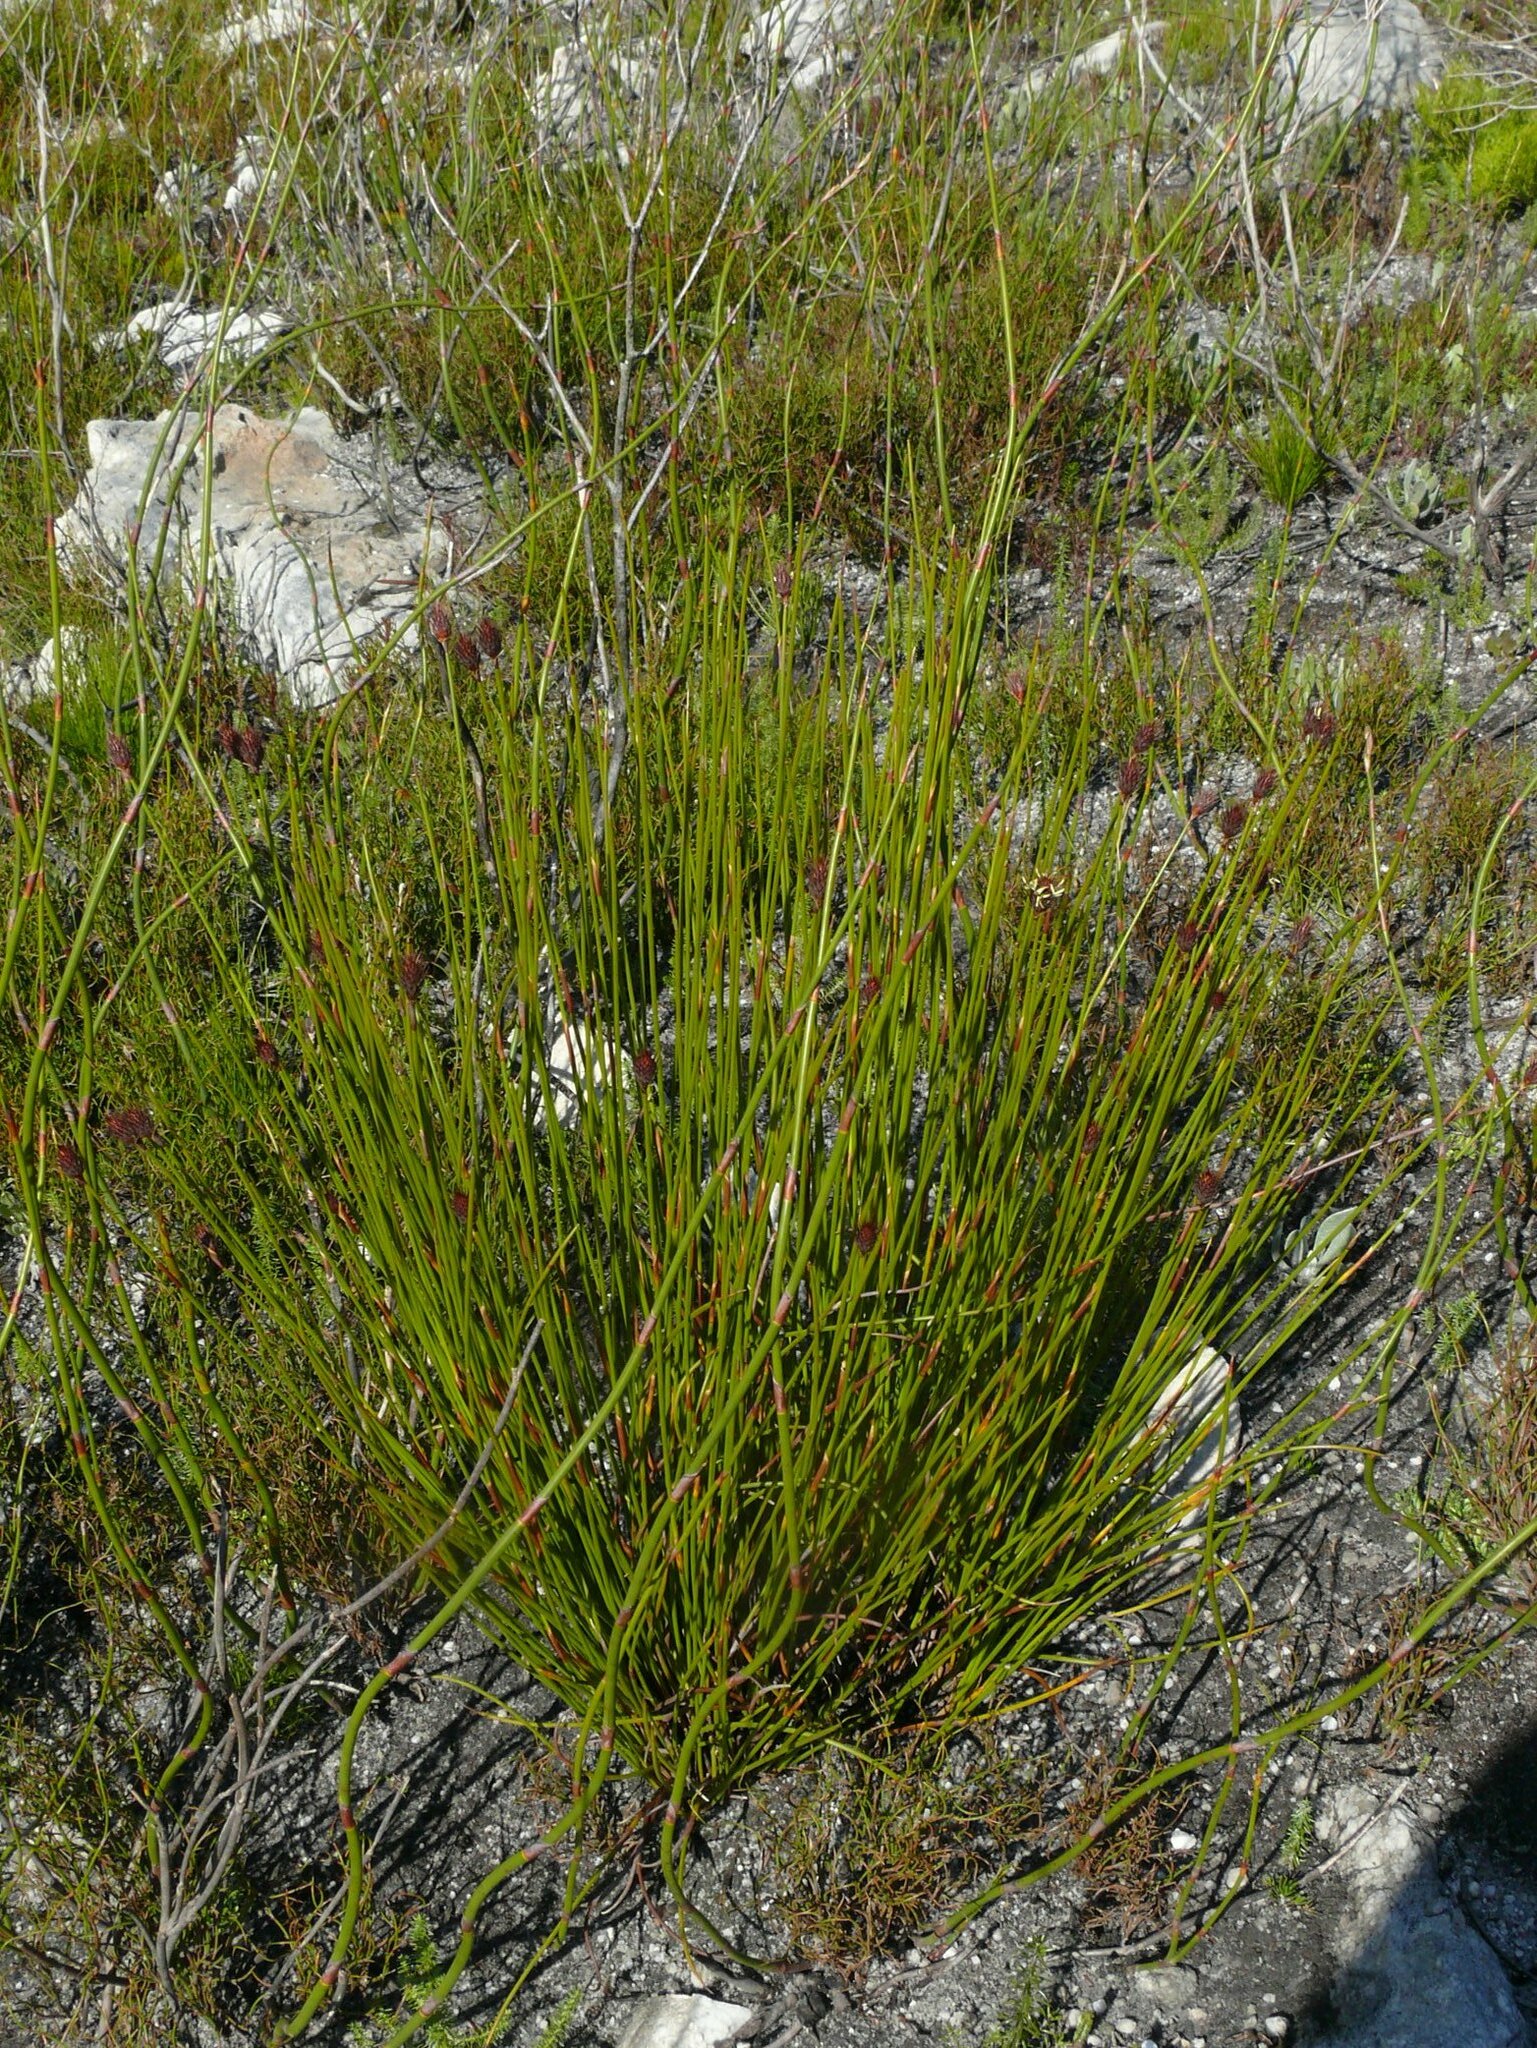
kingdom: Plantae
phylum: Tracheophyta
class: Liliopsida
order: Poales
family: Restionaceae
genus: Hypodiscus
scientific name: Hypodiscus aristatus
